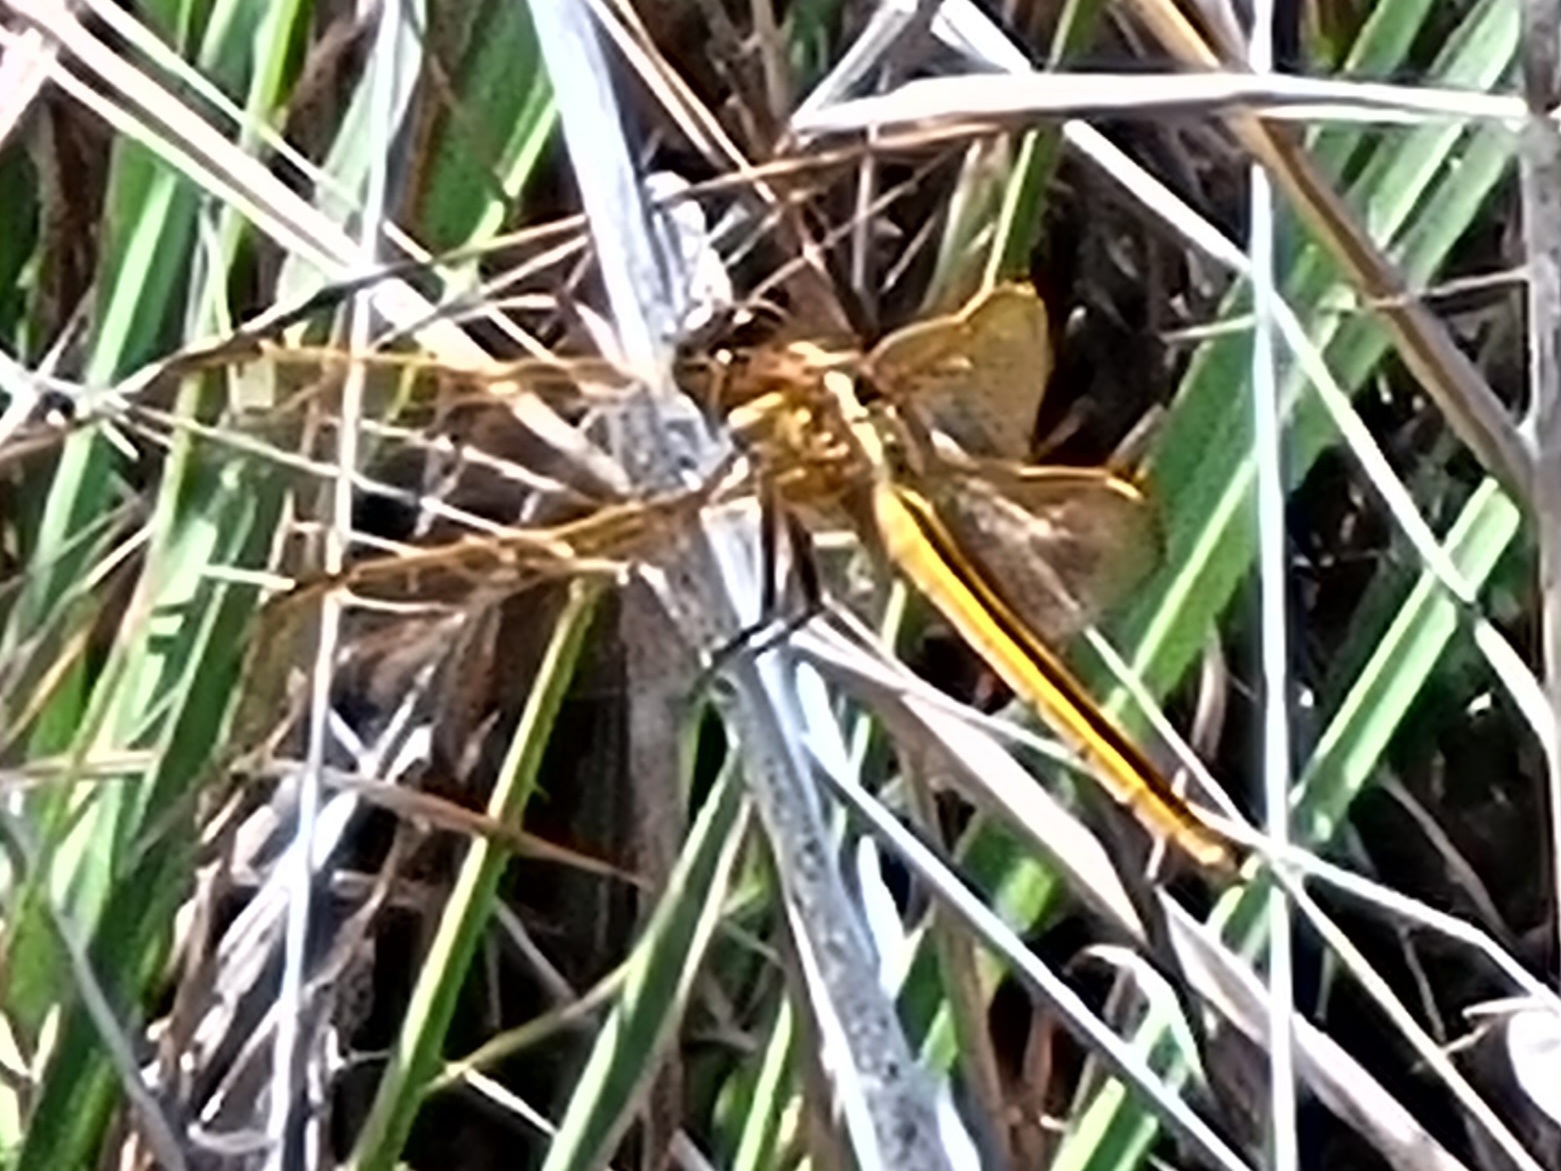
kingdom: Animalia
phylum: Arthropoda
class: Insecta
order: Odonata
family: Libellulidae
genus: Libellula
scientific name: Libellula auripennis
